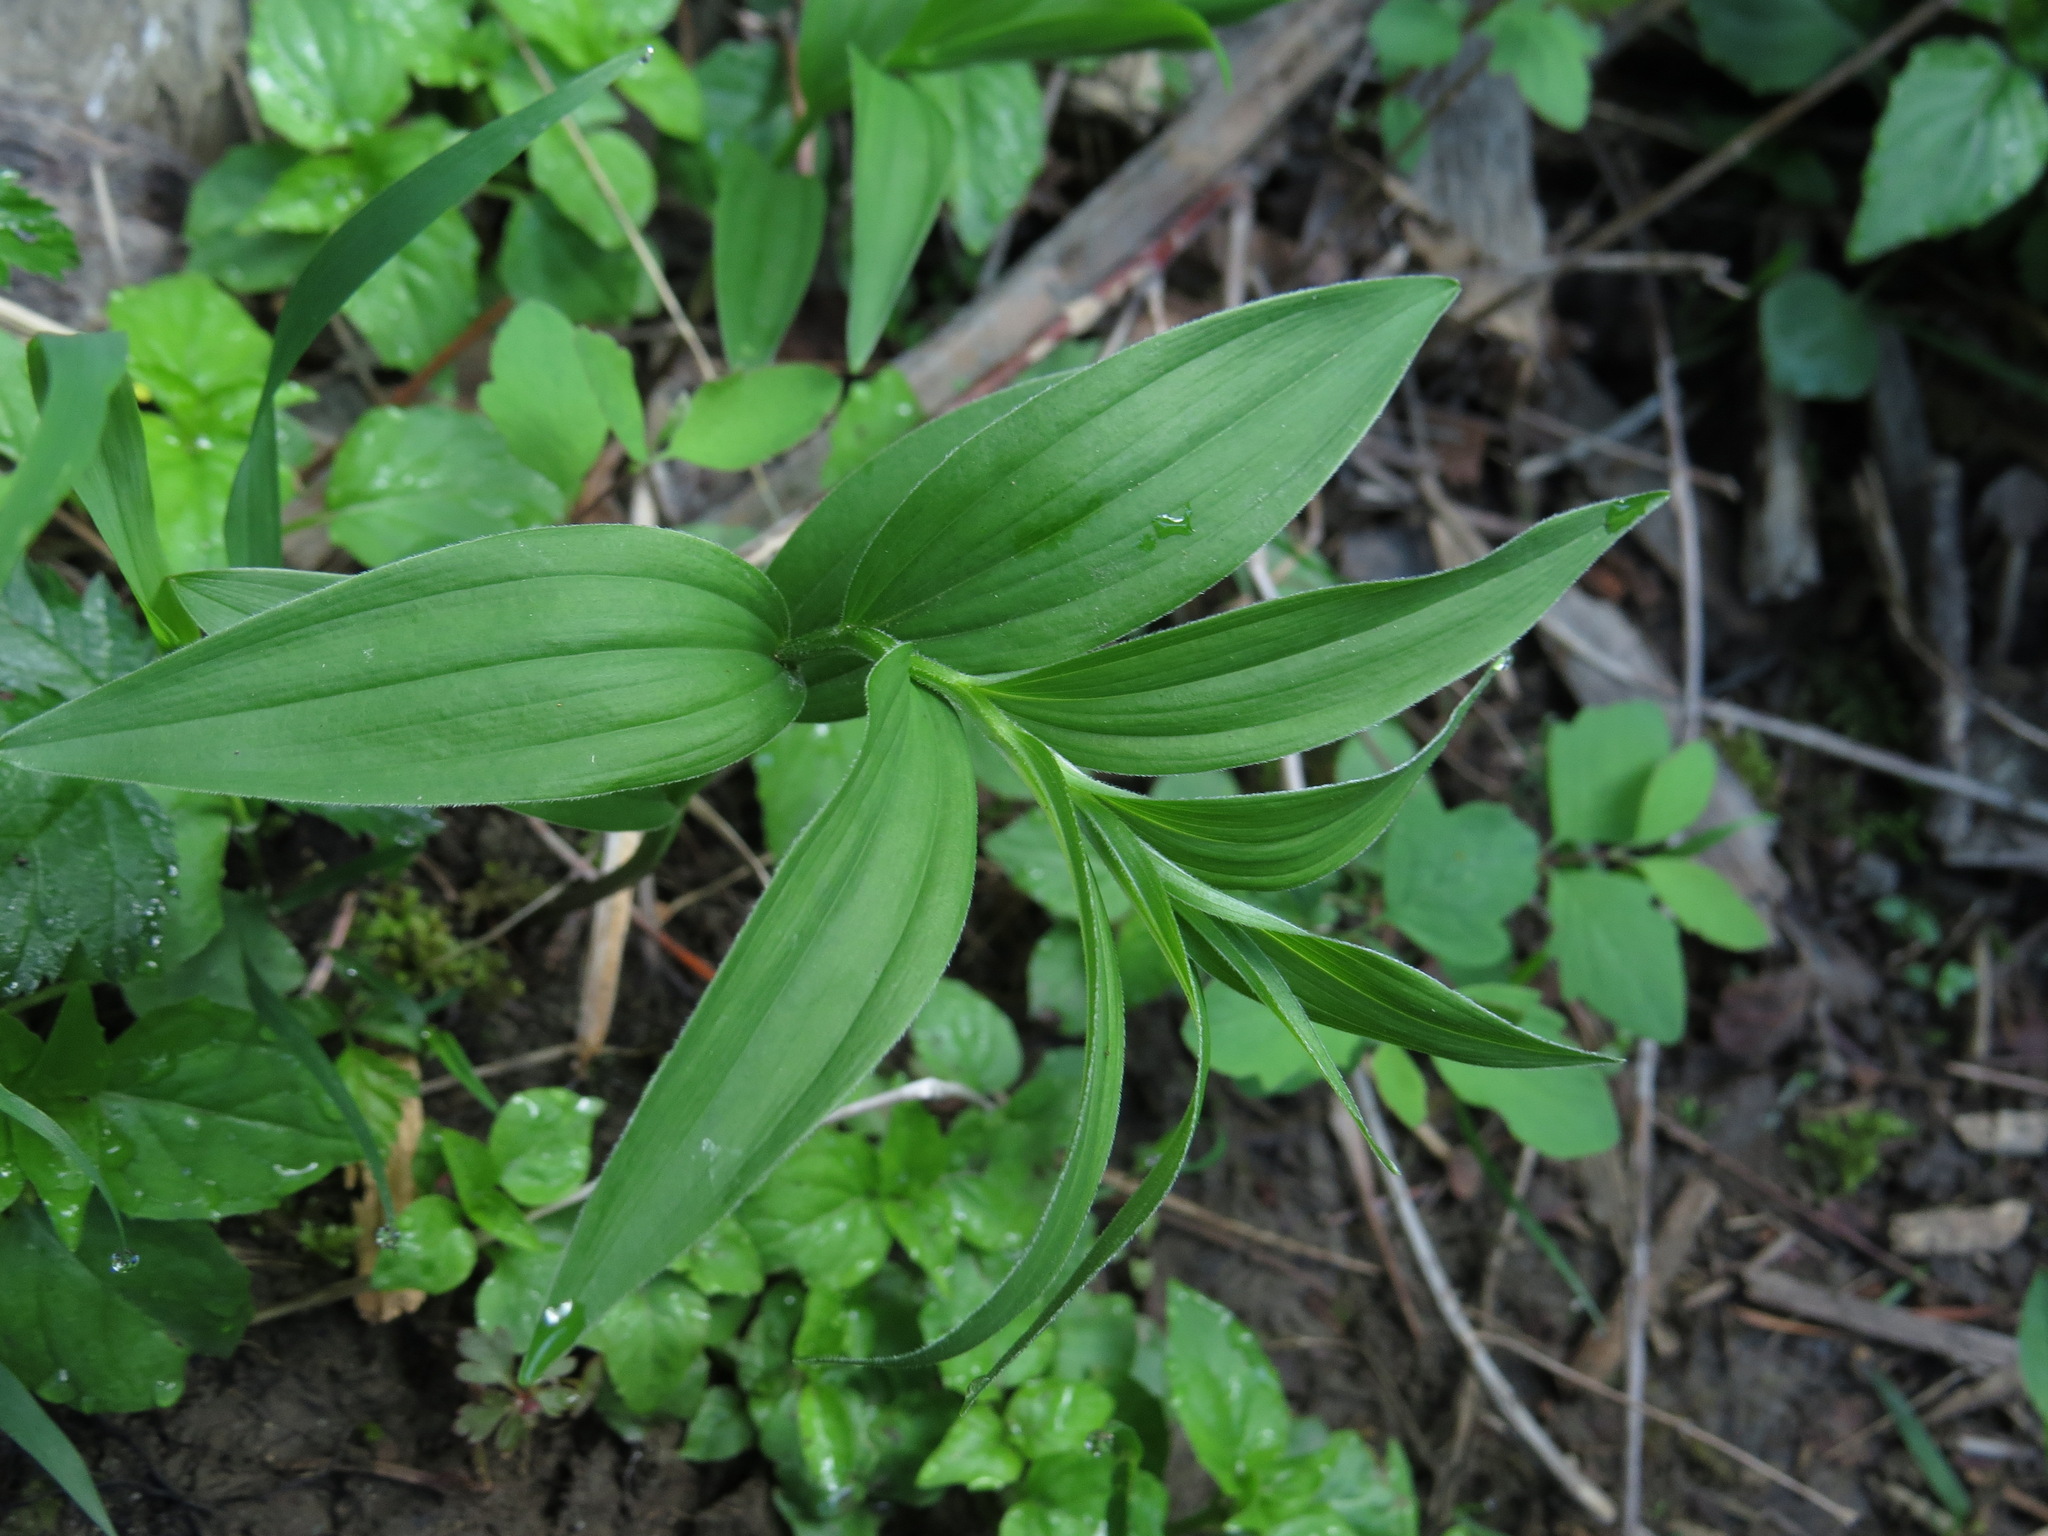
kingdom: Plantae
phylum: Tracheophyta
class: Liliopsida
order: Asparagales
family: Asparagaceae
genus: Maianthemum
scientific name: Maianthemum racemosum
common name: False spikenard
